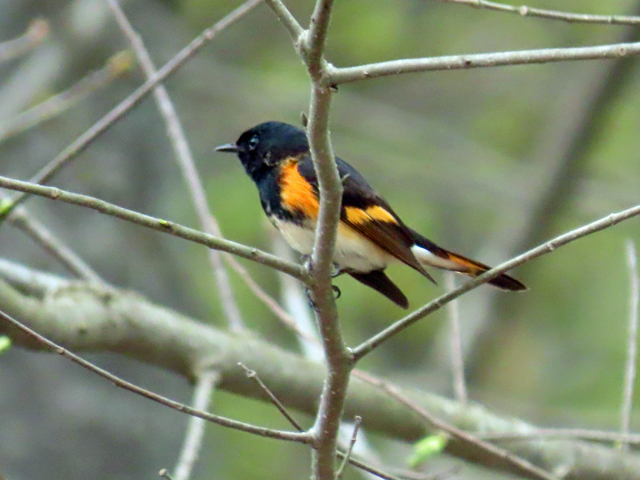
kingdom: Animalia
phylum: Chordata
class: Aves
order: Passeriformes
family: Parulidae
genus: Setophaga
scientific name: Setophaga ruticilla
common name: American redstart
